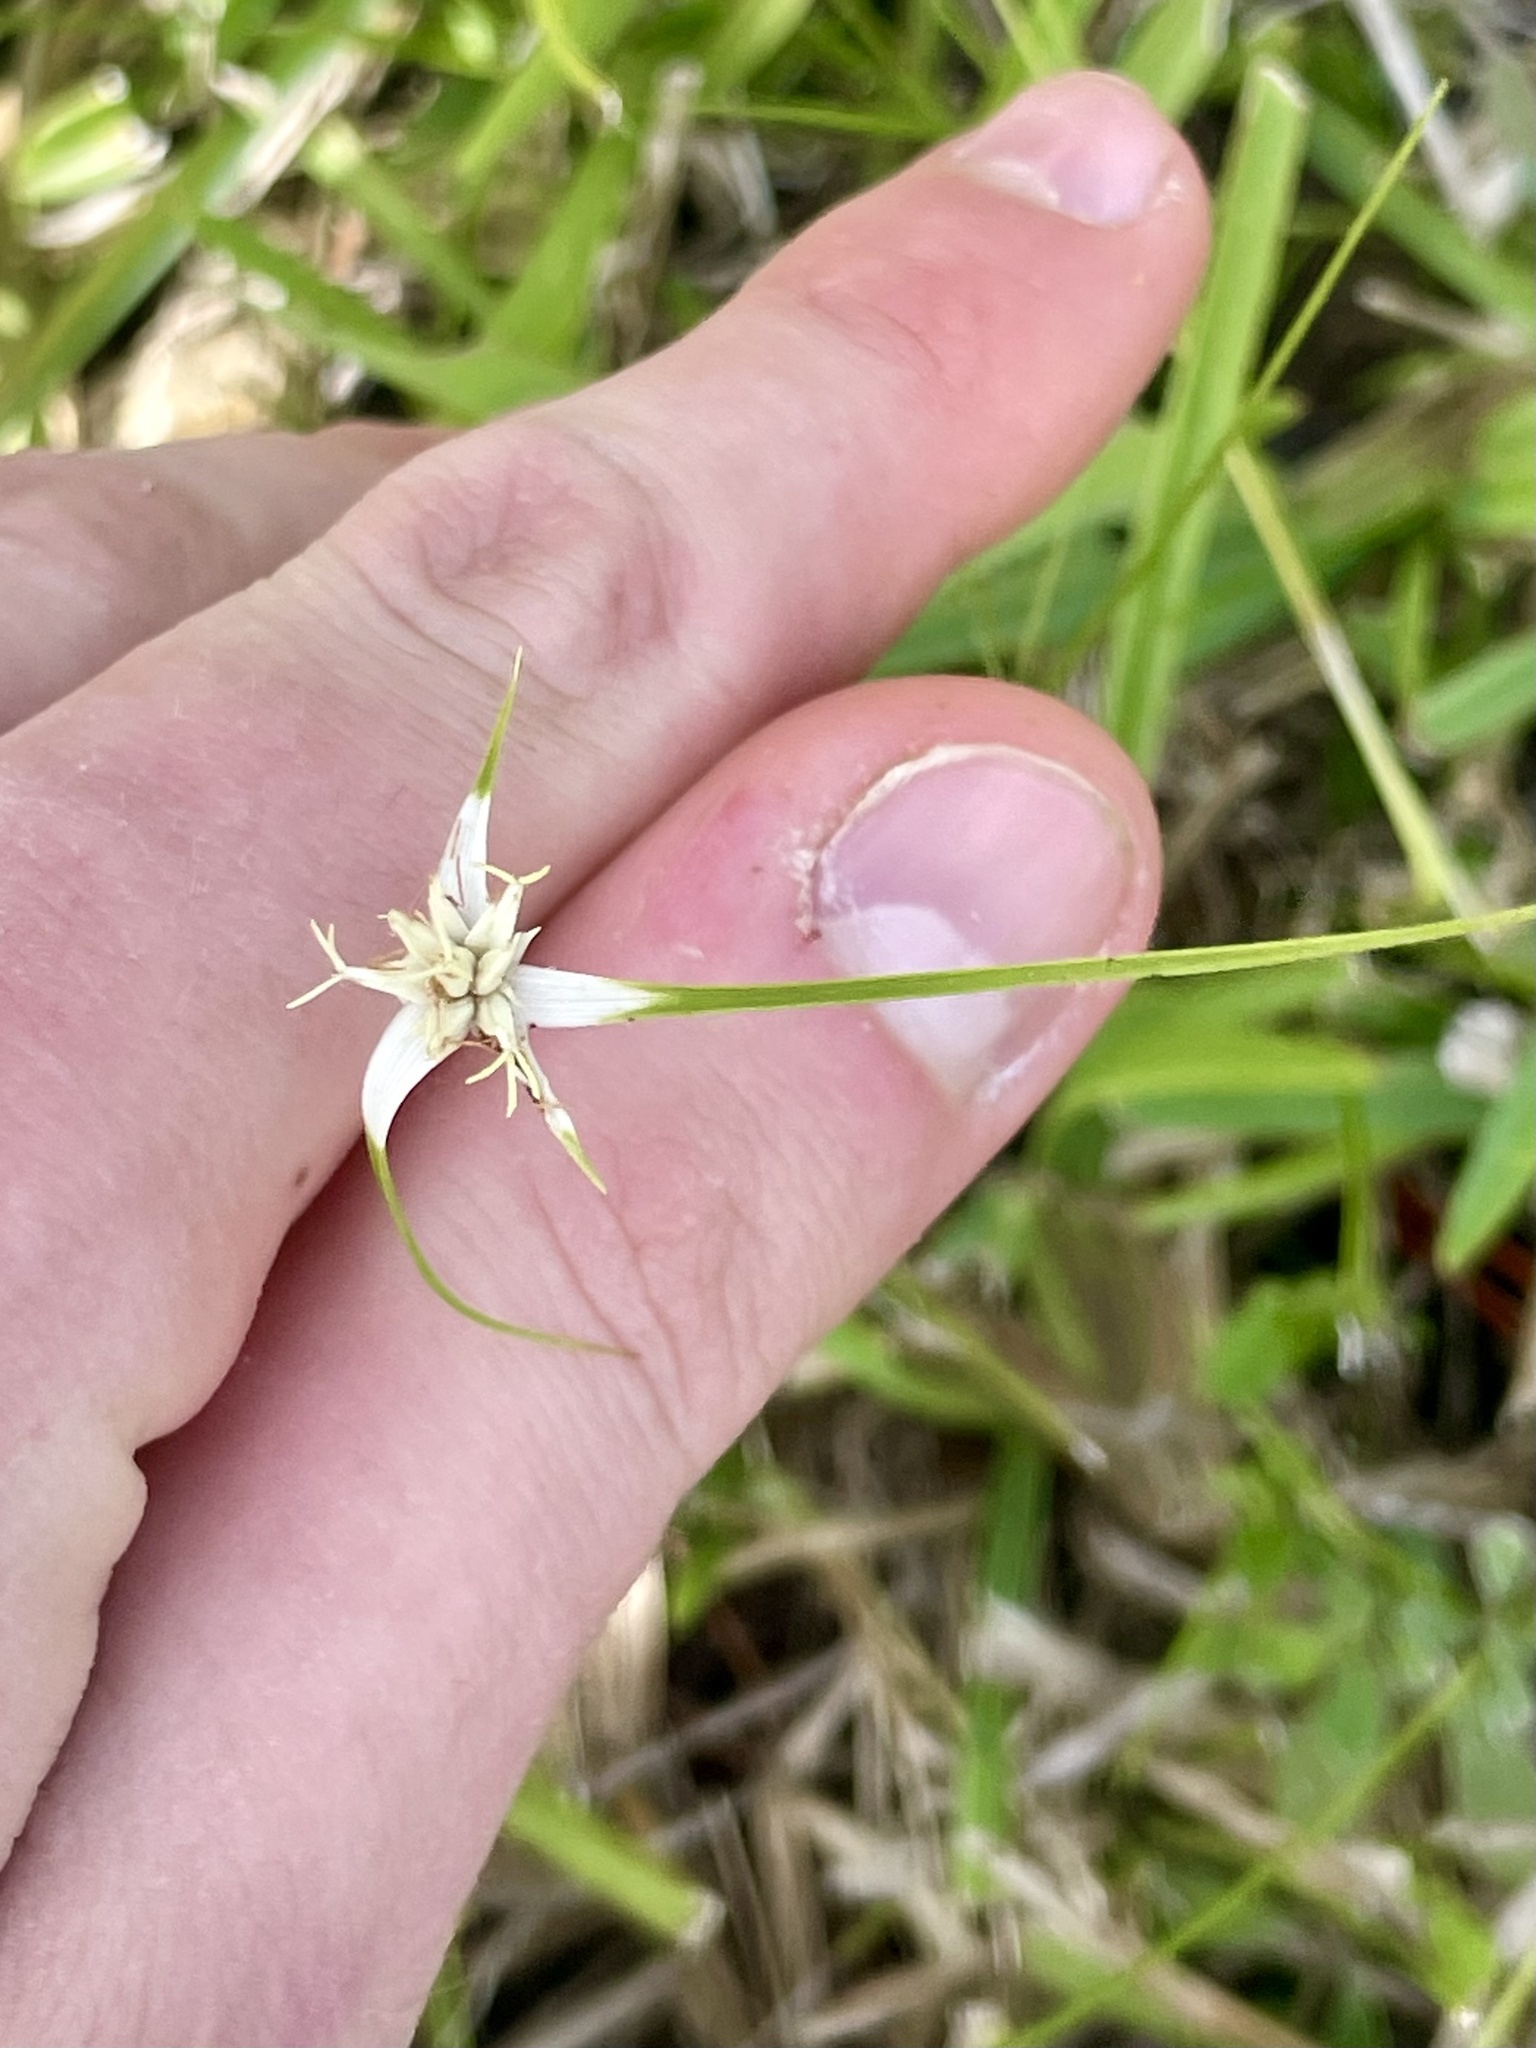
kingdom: Plantae
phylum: Tracheophyta
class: Liliopsida
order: Poales
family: Cyperaceae
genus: Rhynchospora
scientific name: Rhynchospora colorata
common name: Star sedge
